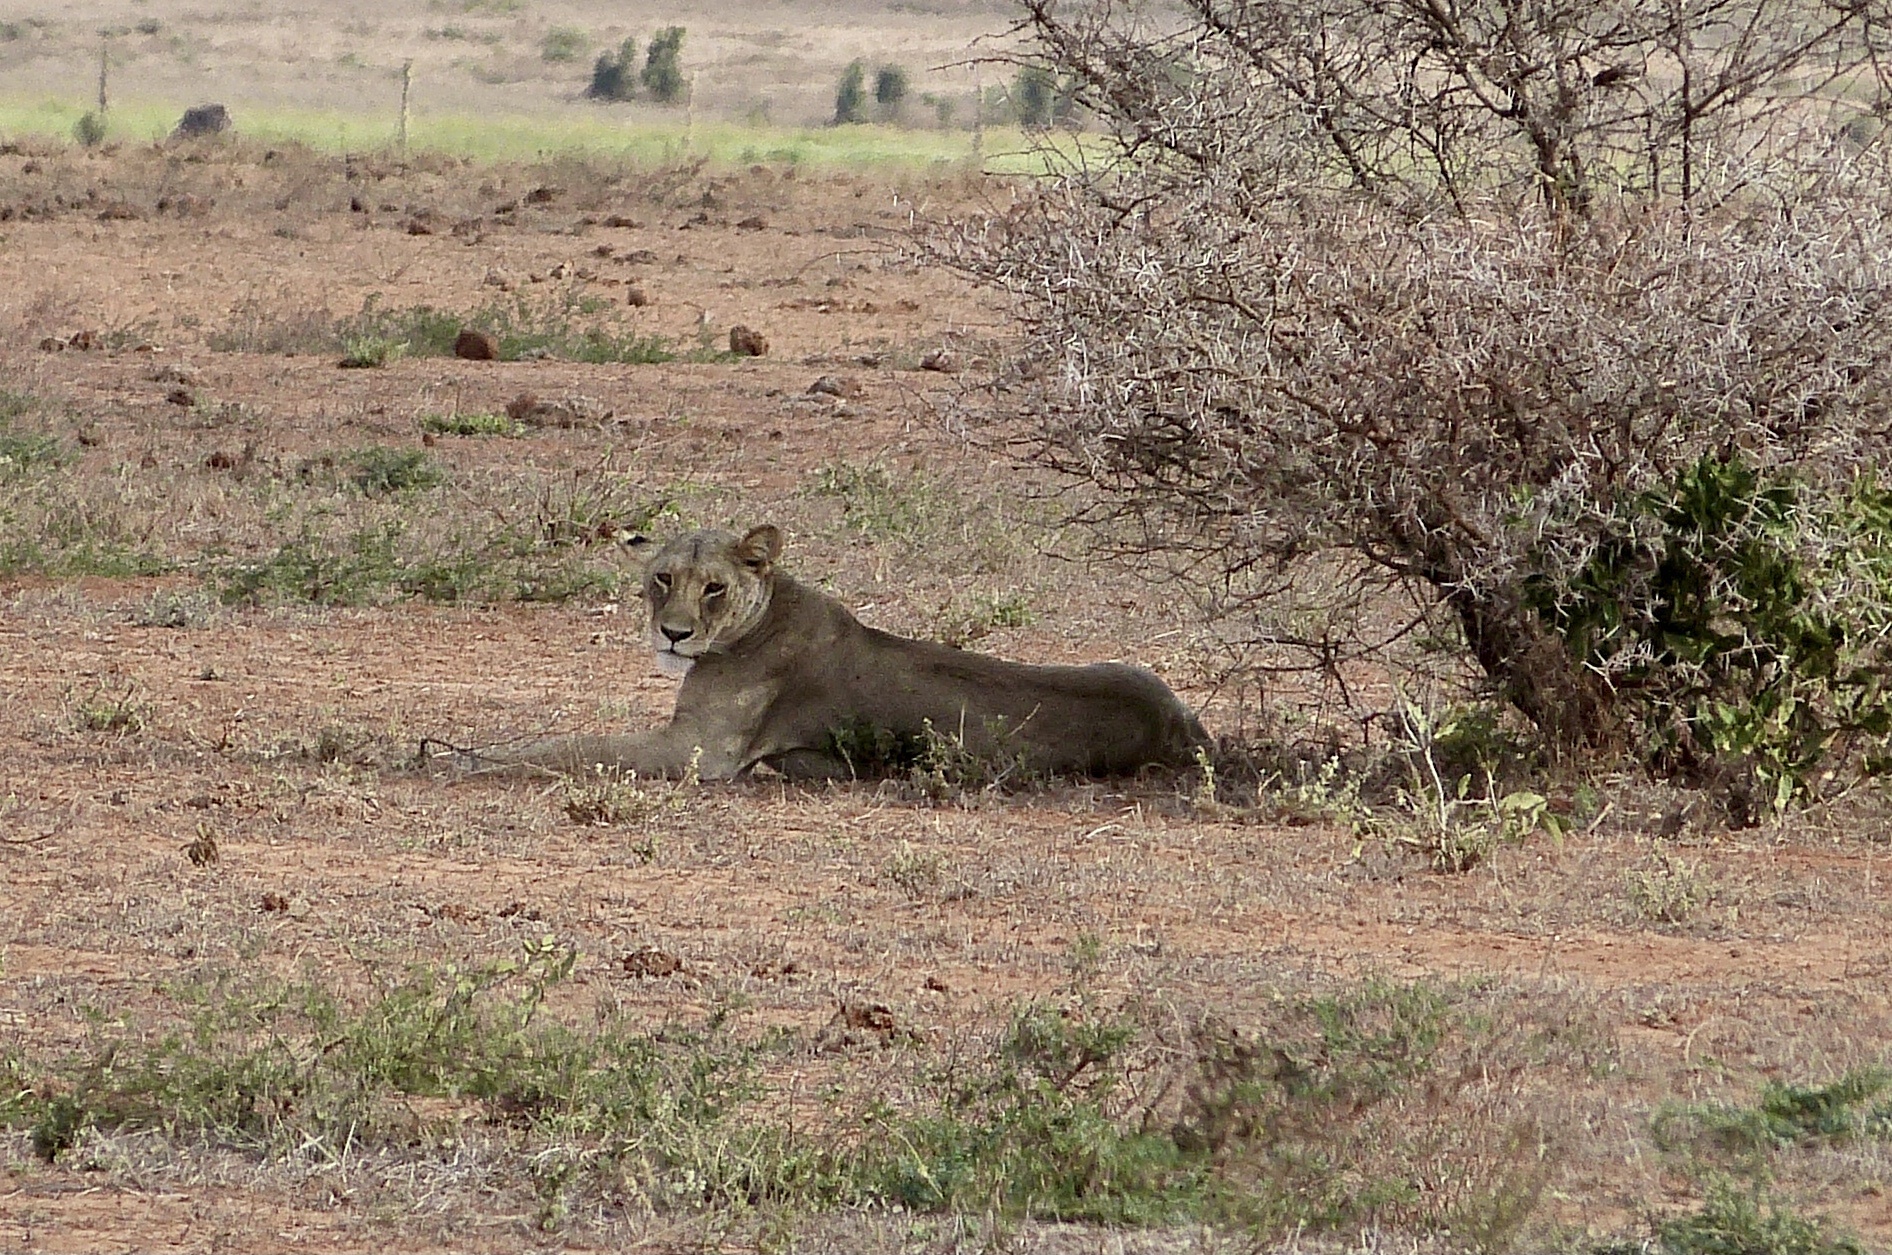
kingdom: Animalia
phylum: Chordata
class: Mammalia
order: Carnivora
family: Felidae
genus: Panthera
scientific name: Panthera leo
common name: Lion
